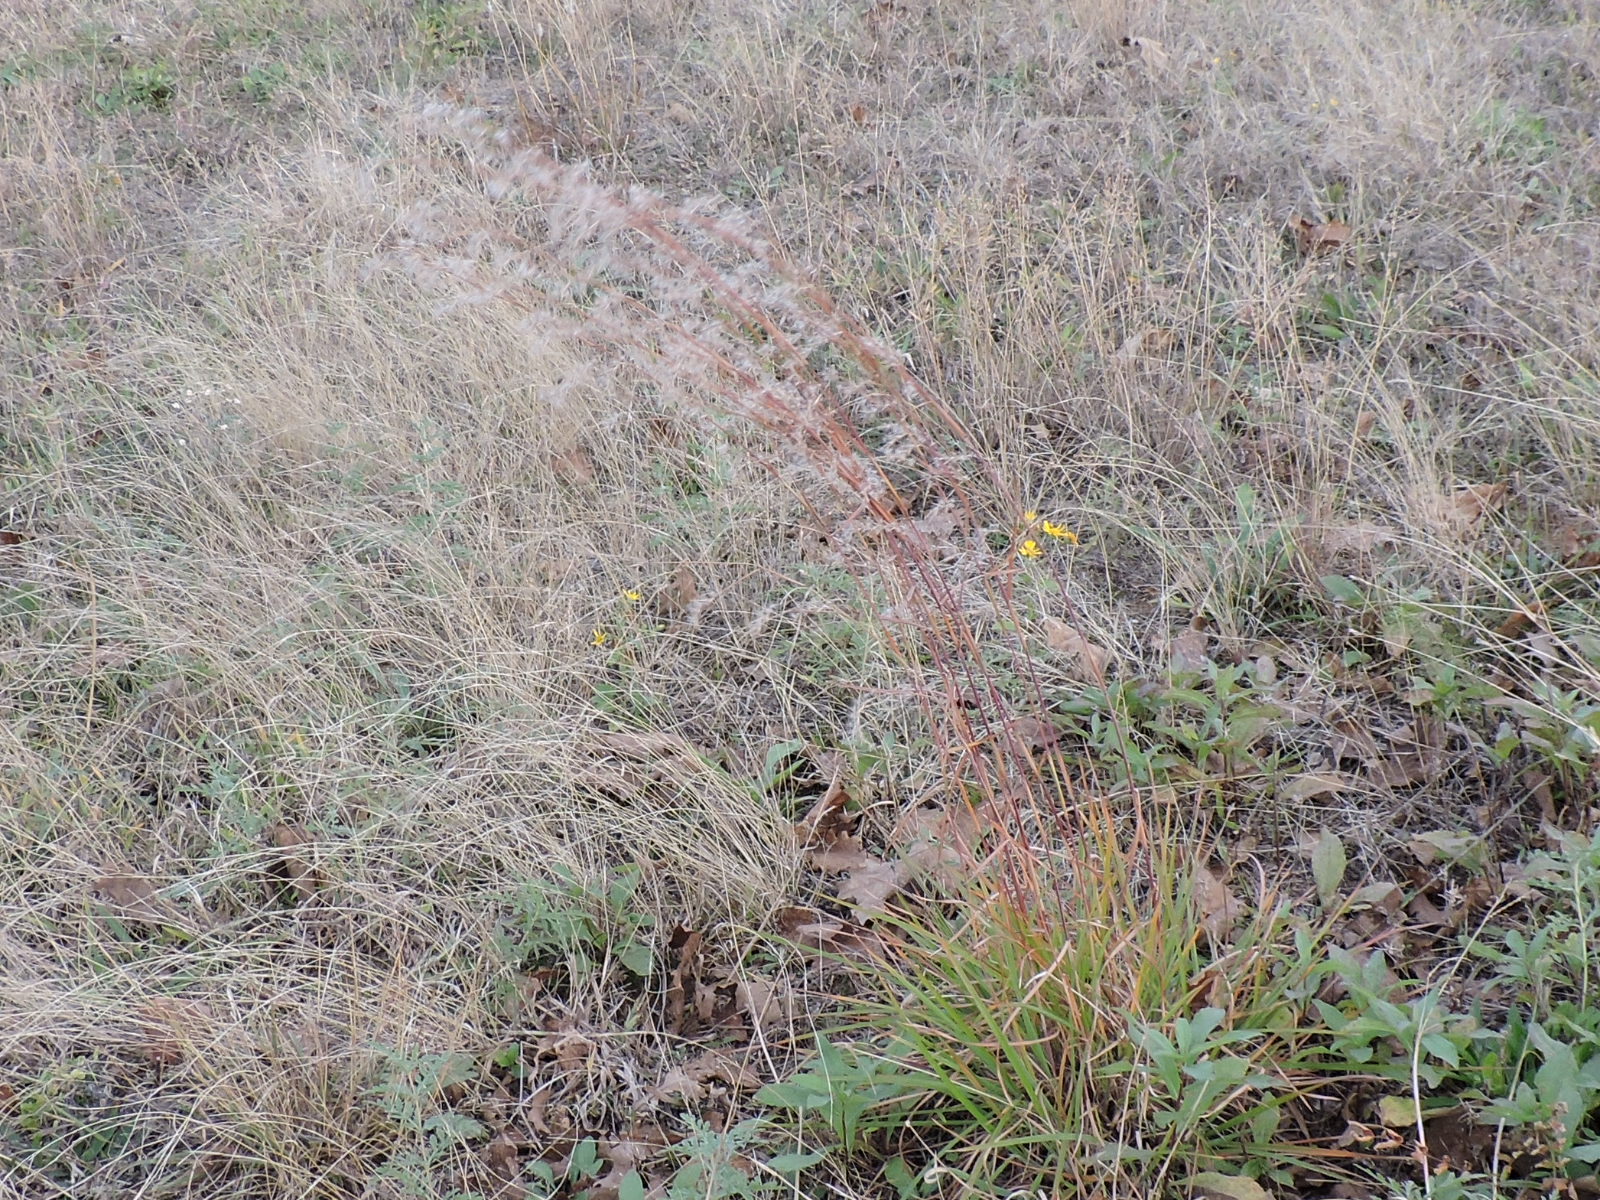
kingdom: Plantae
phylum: Tracheophyta
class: Liliopsida
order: Poales
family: Poaceae
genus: Schizachyrium
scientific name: Schizachyrium scoparium
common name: Little bluestem
